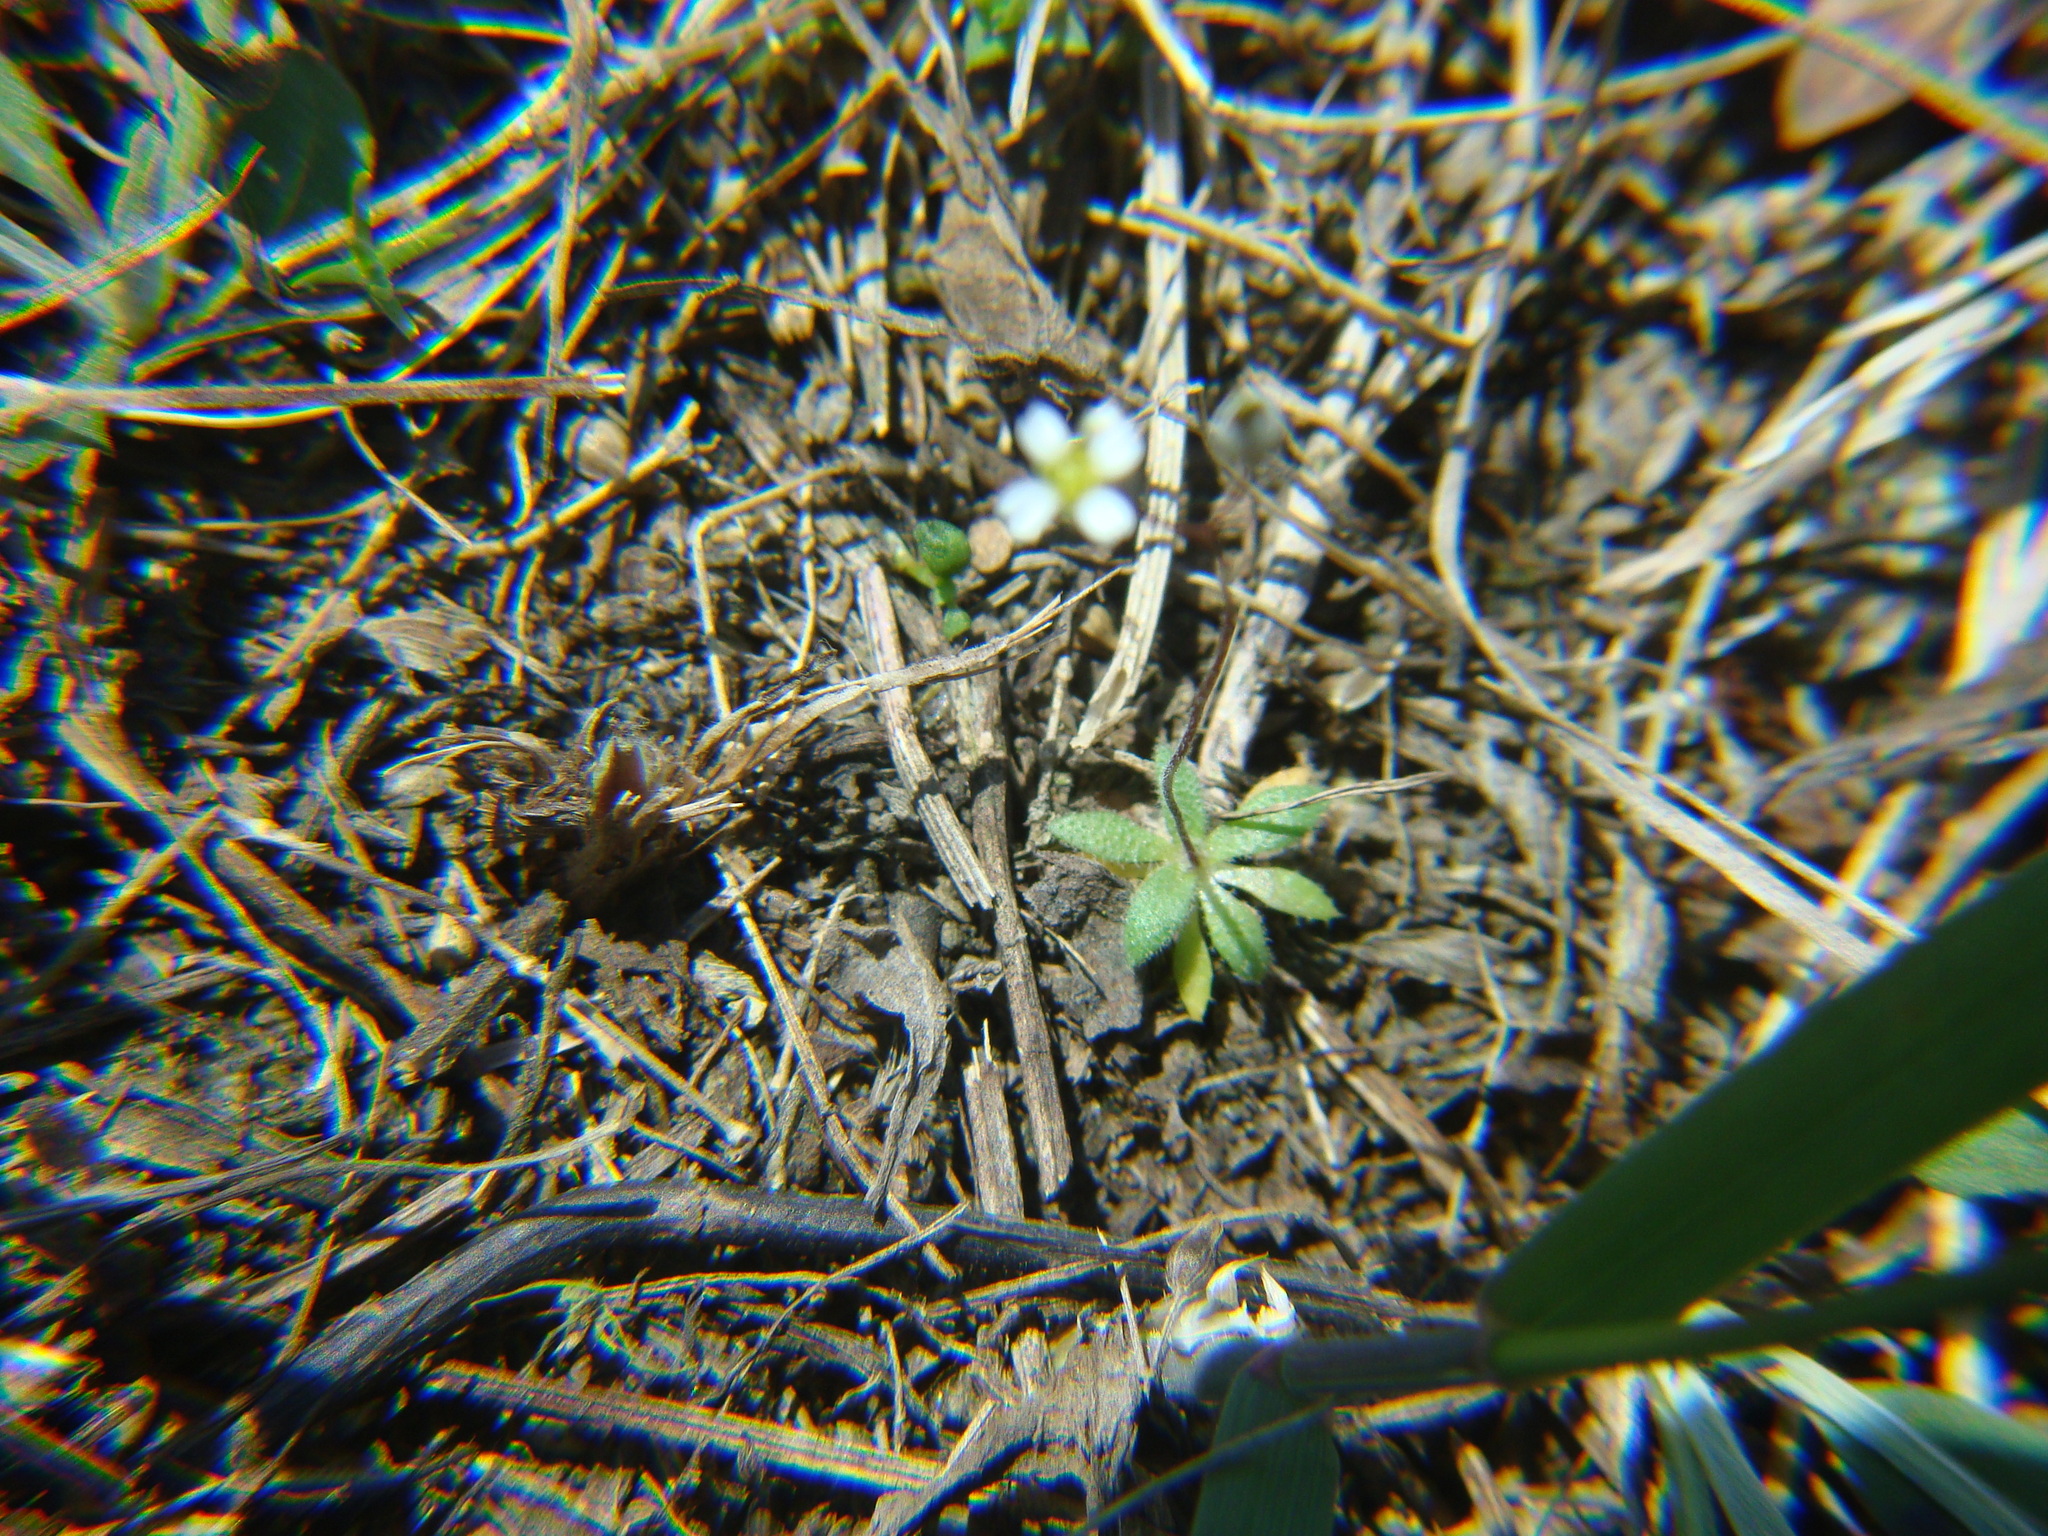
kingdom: Plantae
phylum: Tracheophyta
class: Magnoliopsida
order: Brassicales
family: Brassicaceae
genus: Draba
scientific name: Draba verna
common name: Spring draba
